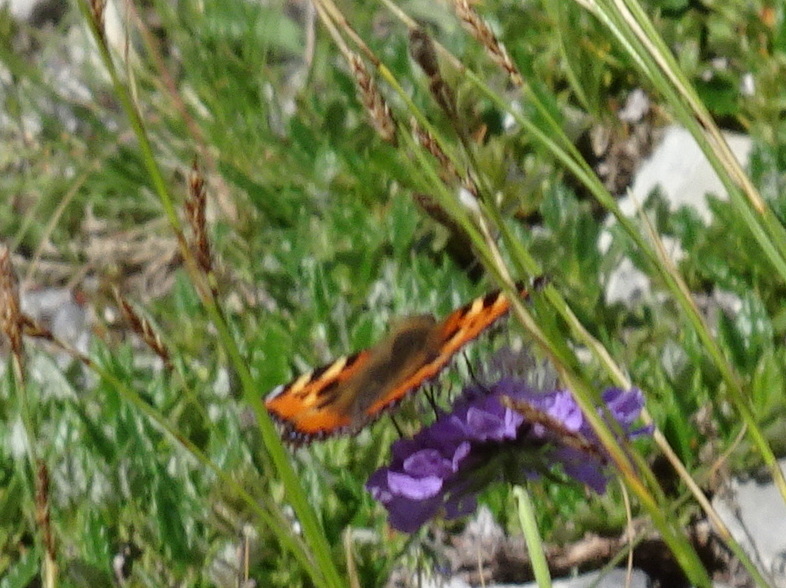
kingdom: Animalia
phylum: Arthropoda
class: Insecta
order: Lepidoptera
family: Nymphalidae
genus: Aglais
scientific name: Aglais urticae
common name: Small tortoiseshell
